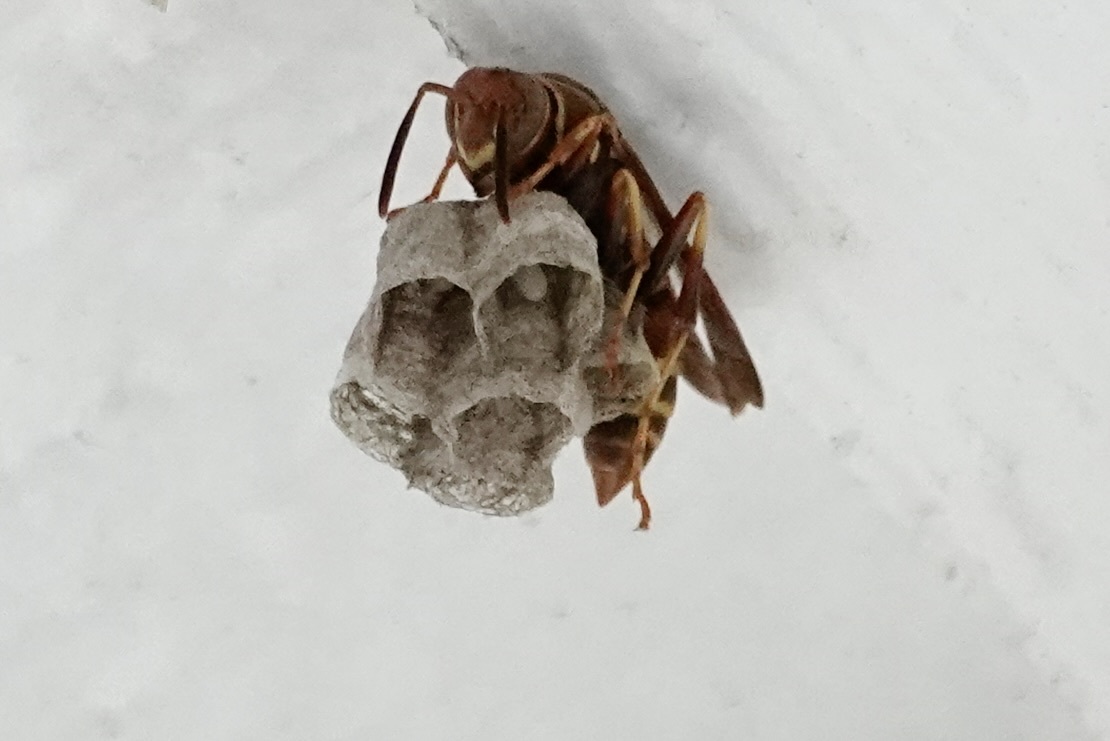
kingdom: Animalia
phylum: Arthropoda
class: Insecta
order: Hymenoptera
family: Eumenidae
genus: Polistes
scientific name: Polistes dorsalis
